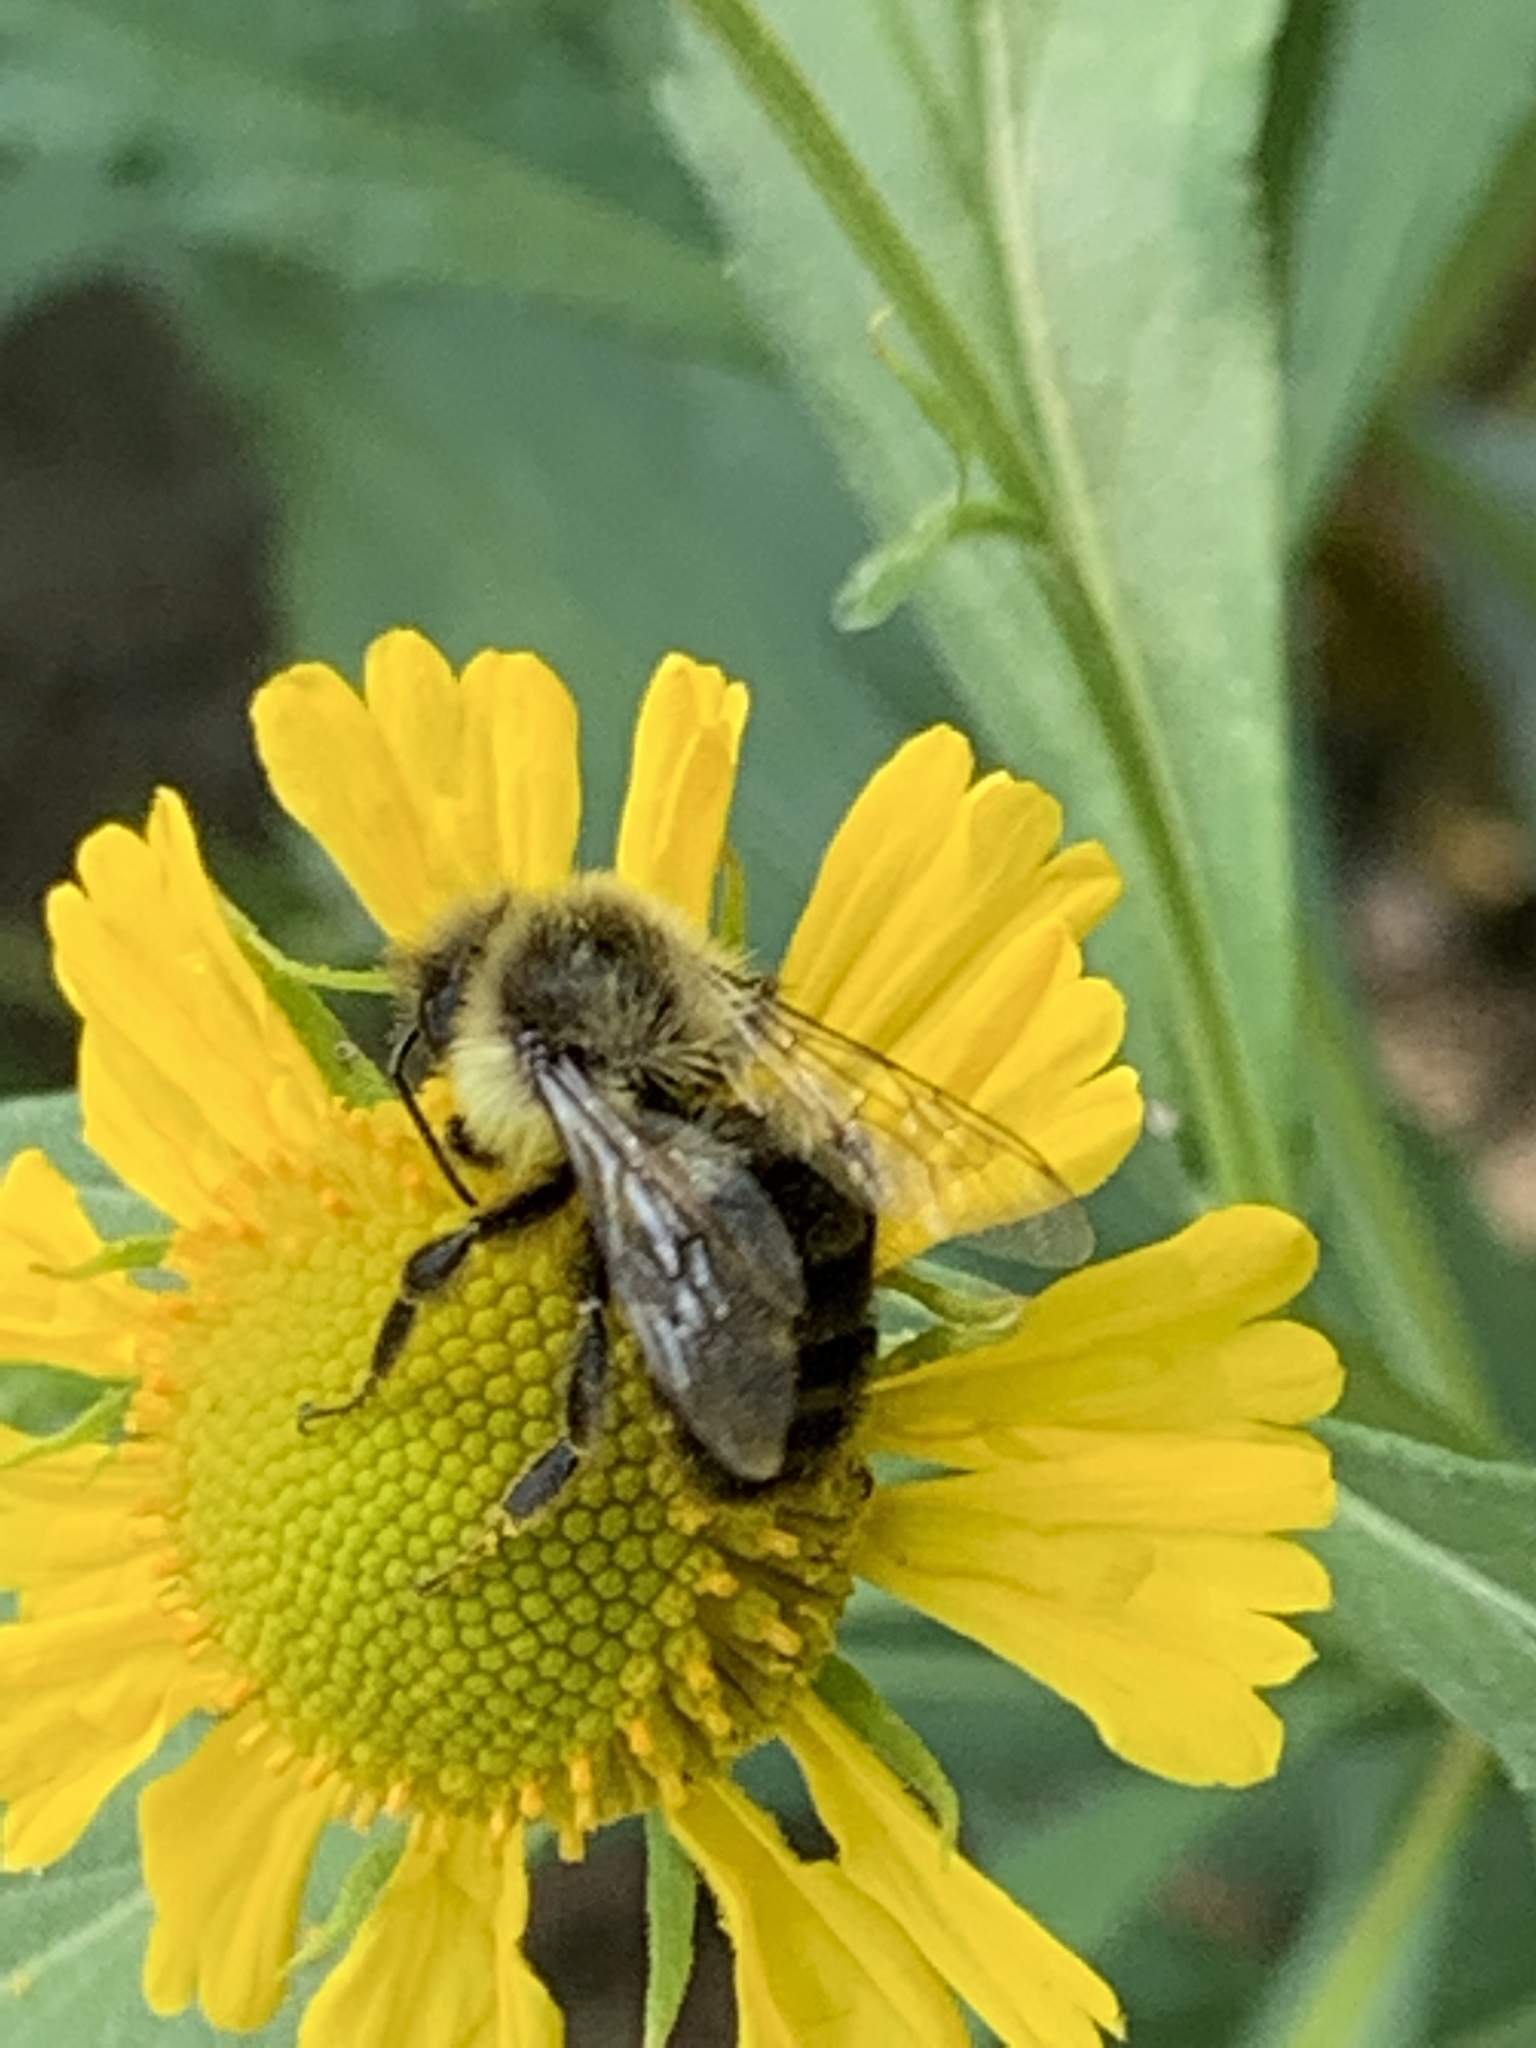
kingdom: Animalia
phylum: Arthropoda
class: Insecta
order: Hymenoptera
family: Apidae
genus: Bombus
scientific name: Bombus impatiens
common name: Common eastern bumble bee
